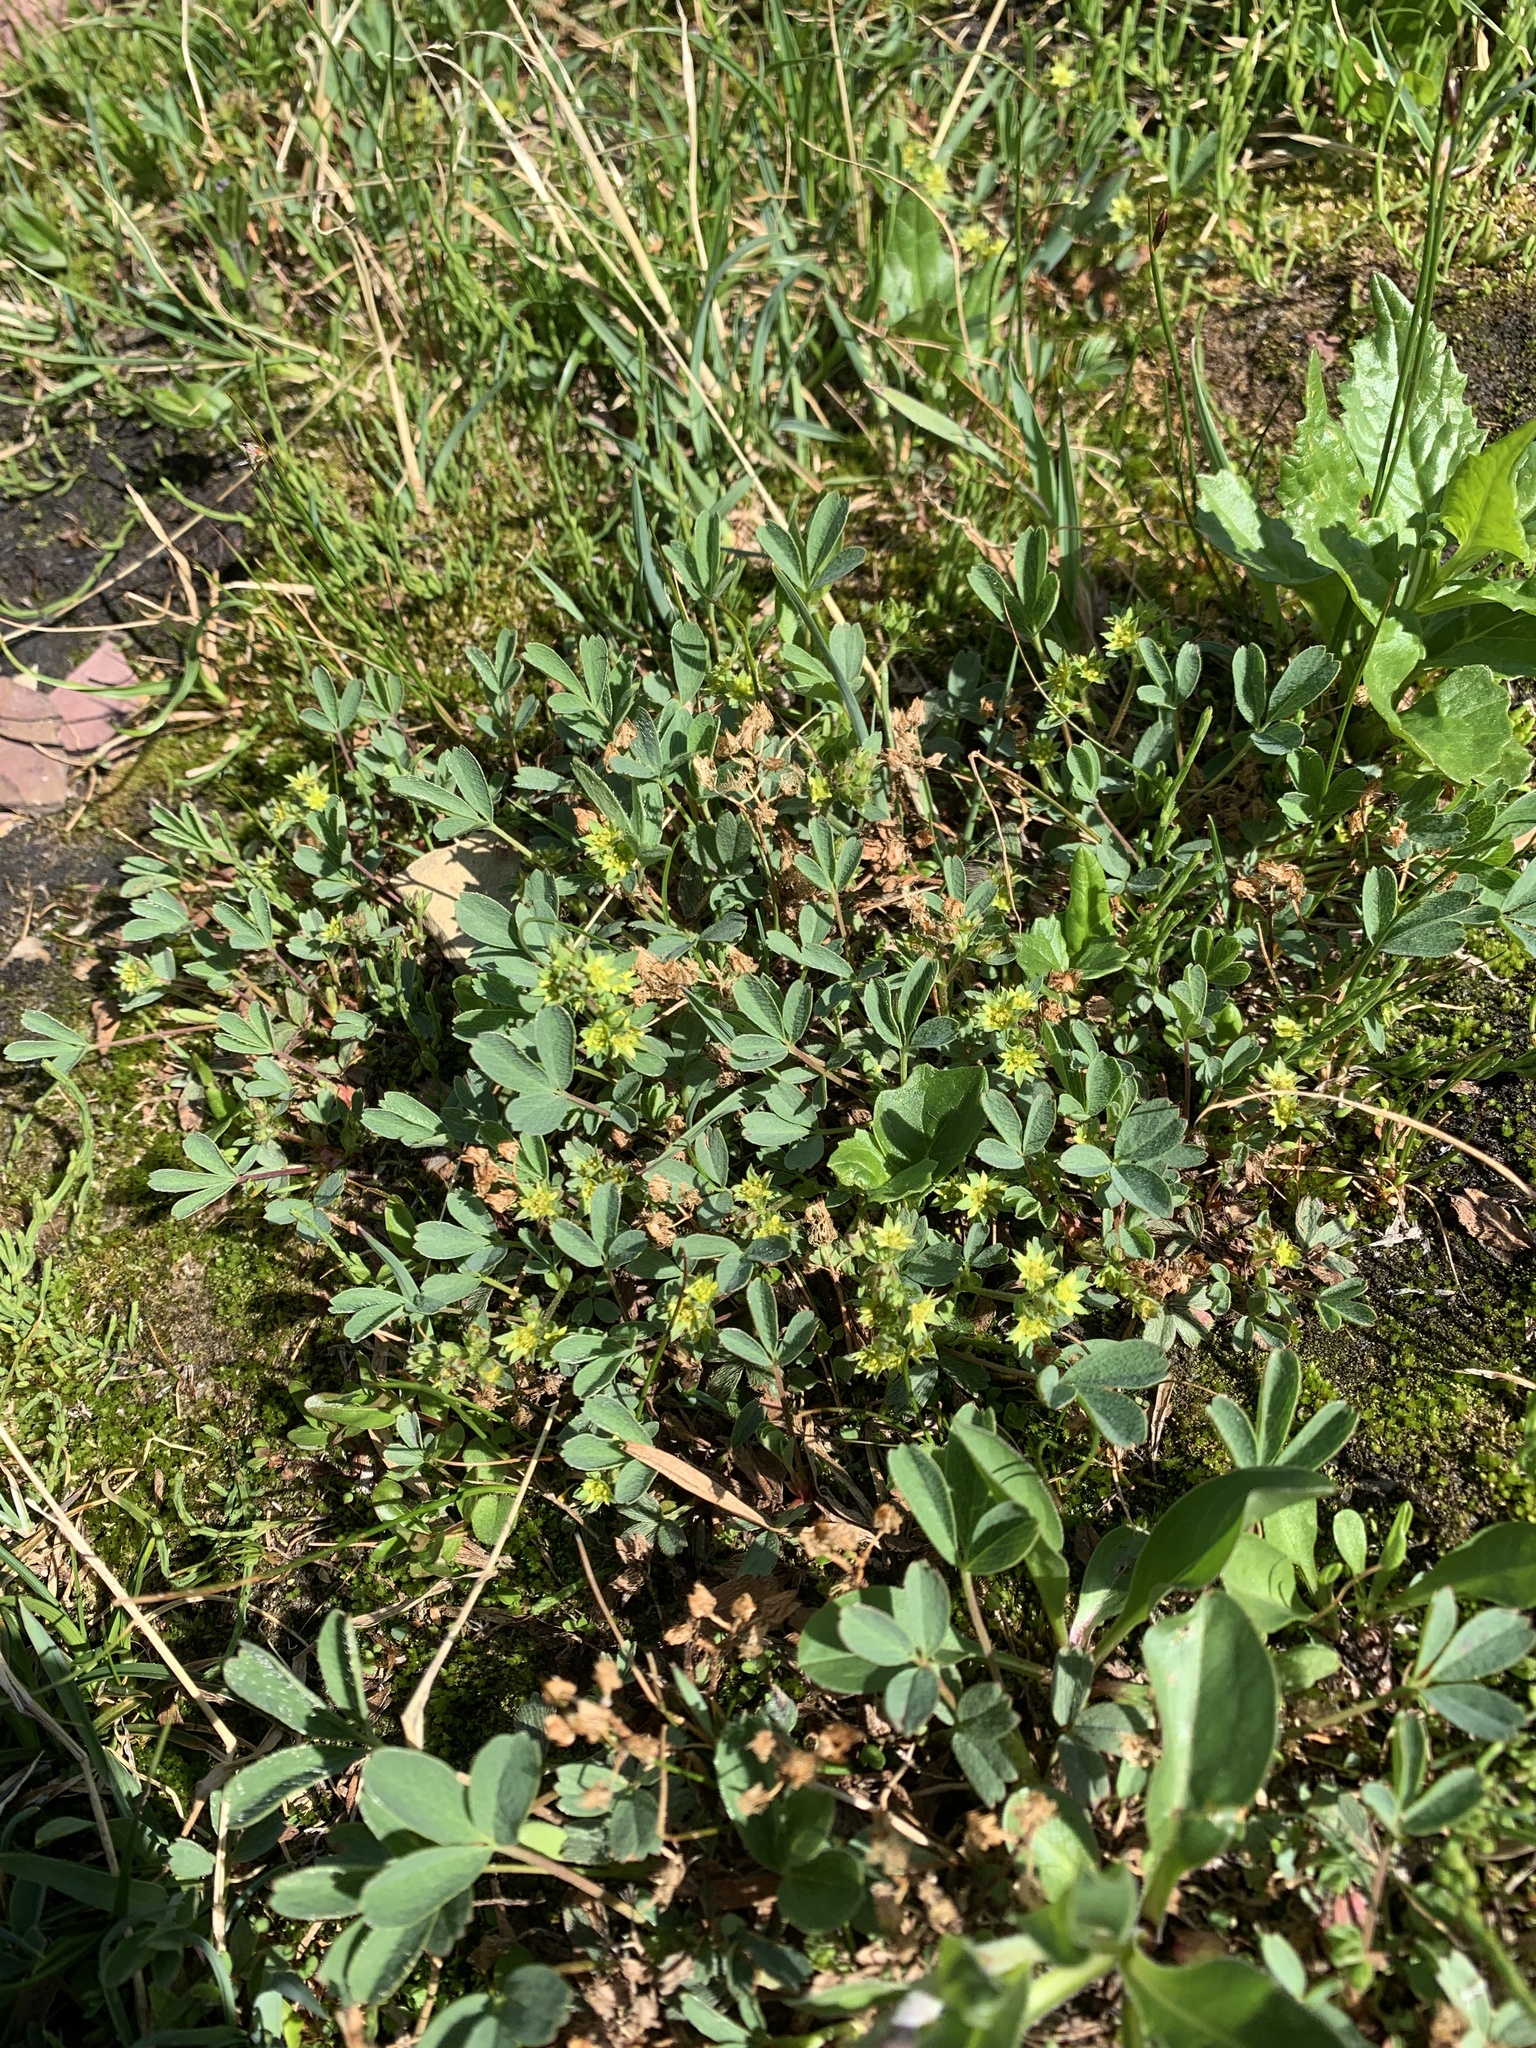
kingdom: Plantae
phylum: Tracheophyta
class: Magnoliopsida
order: Rosales
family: Rosaceae
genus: Sibbaldia
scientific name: Sibbaldia procumbens
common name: Creeping sibbaldia
